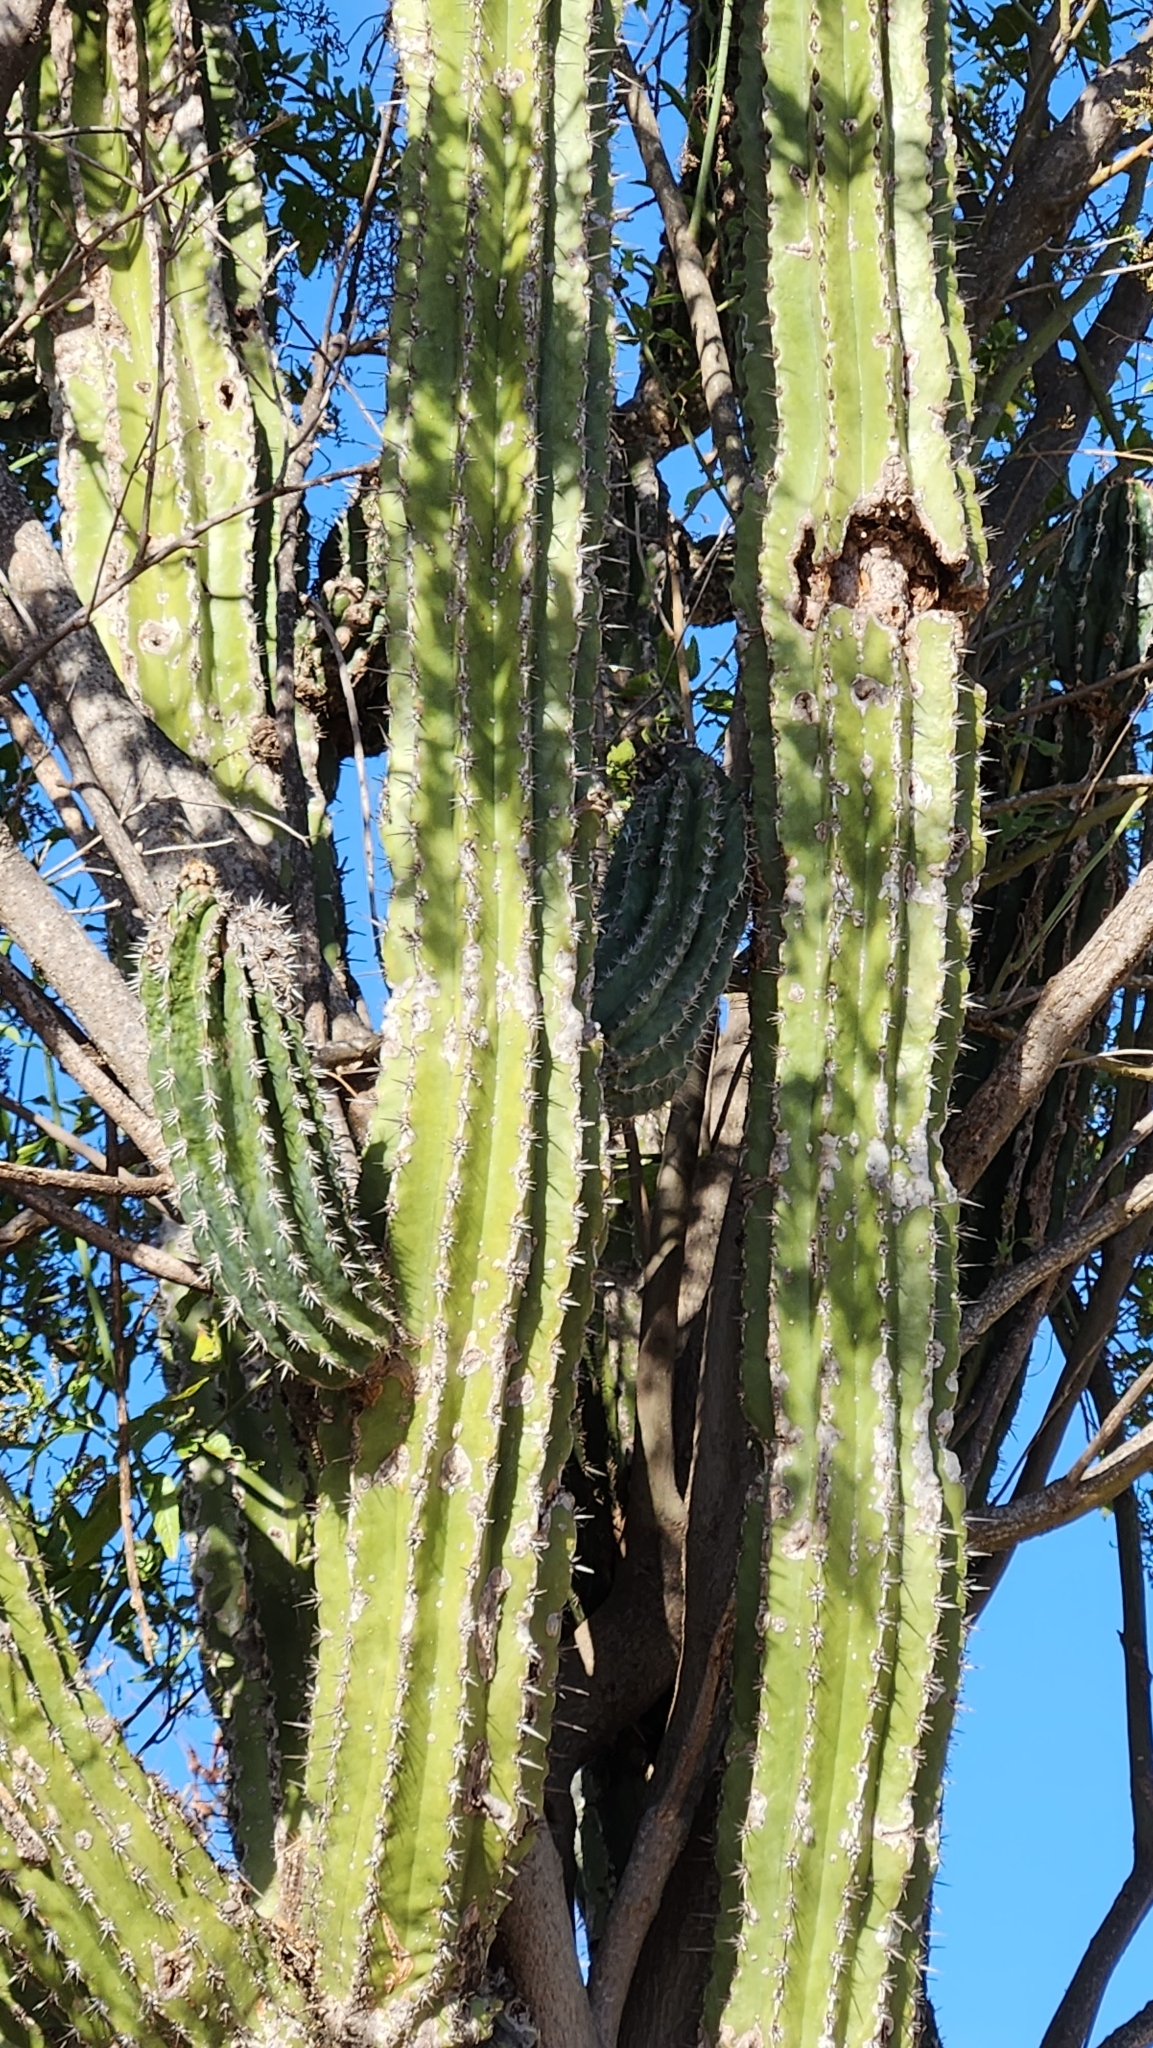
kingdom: Plantae
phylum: Tracheophyta
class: Magnoliopsida
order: Caryophyllales
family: Cactaceae
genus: Pachycereus
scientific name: Pachycereus pecten-aboriginum
